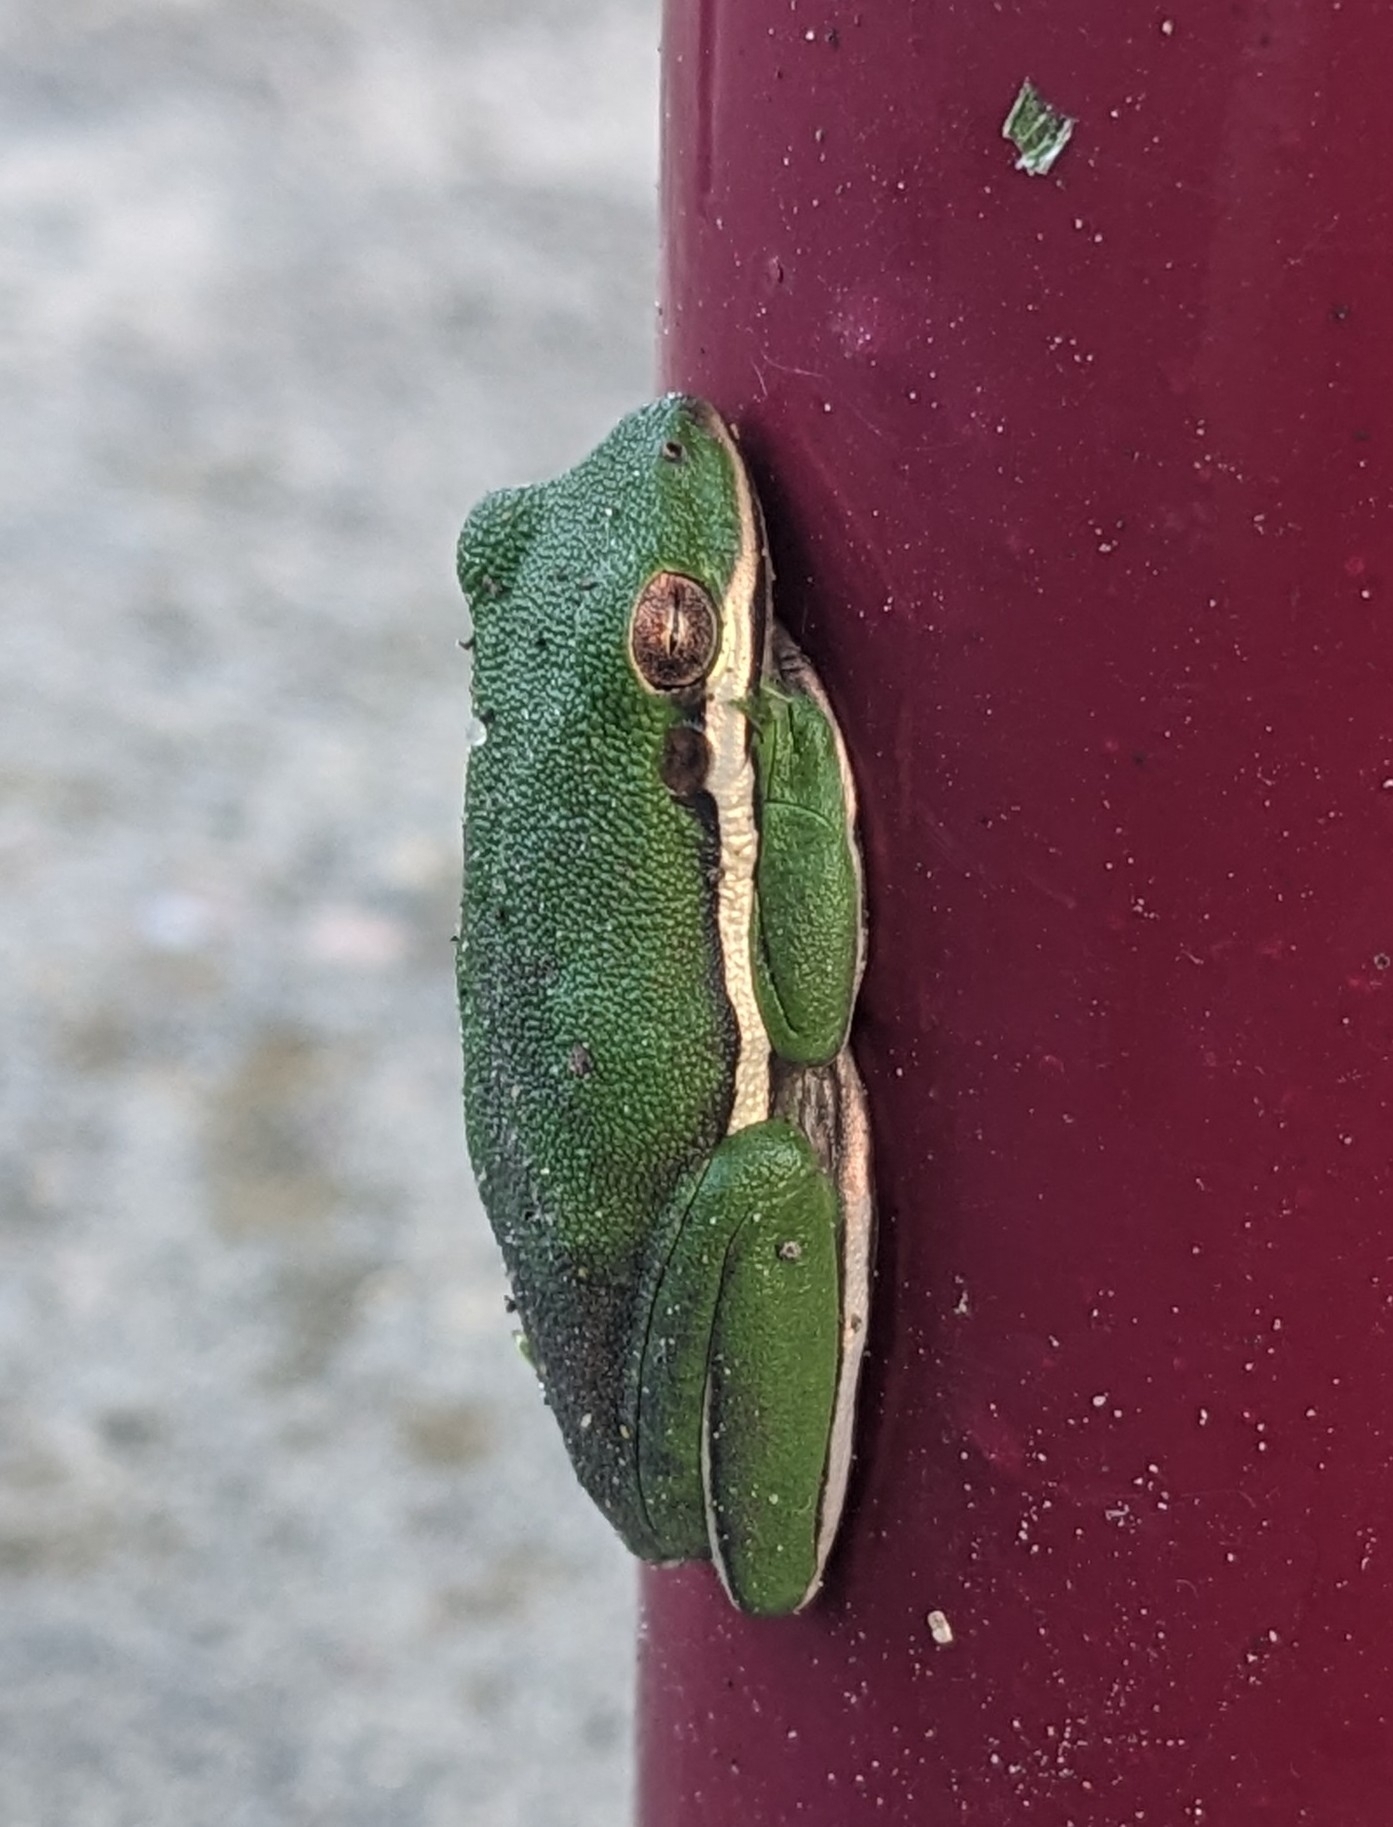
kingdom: Animalia
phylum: Chordata
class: Amphibia
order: Anura
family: Hylidae
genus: Dryophytes
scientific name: Dryophytes cinereus
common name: Green treefrog
